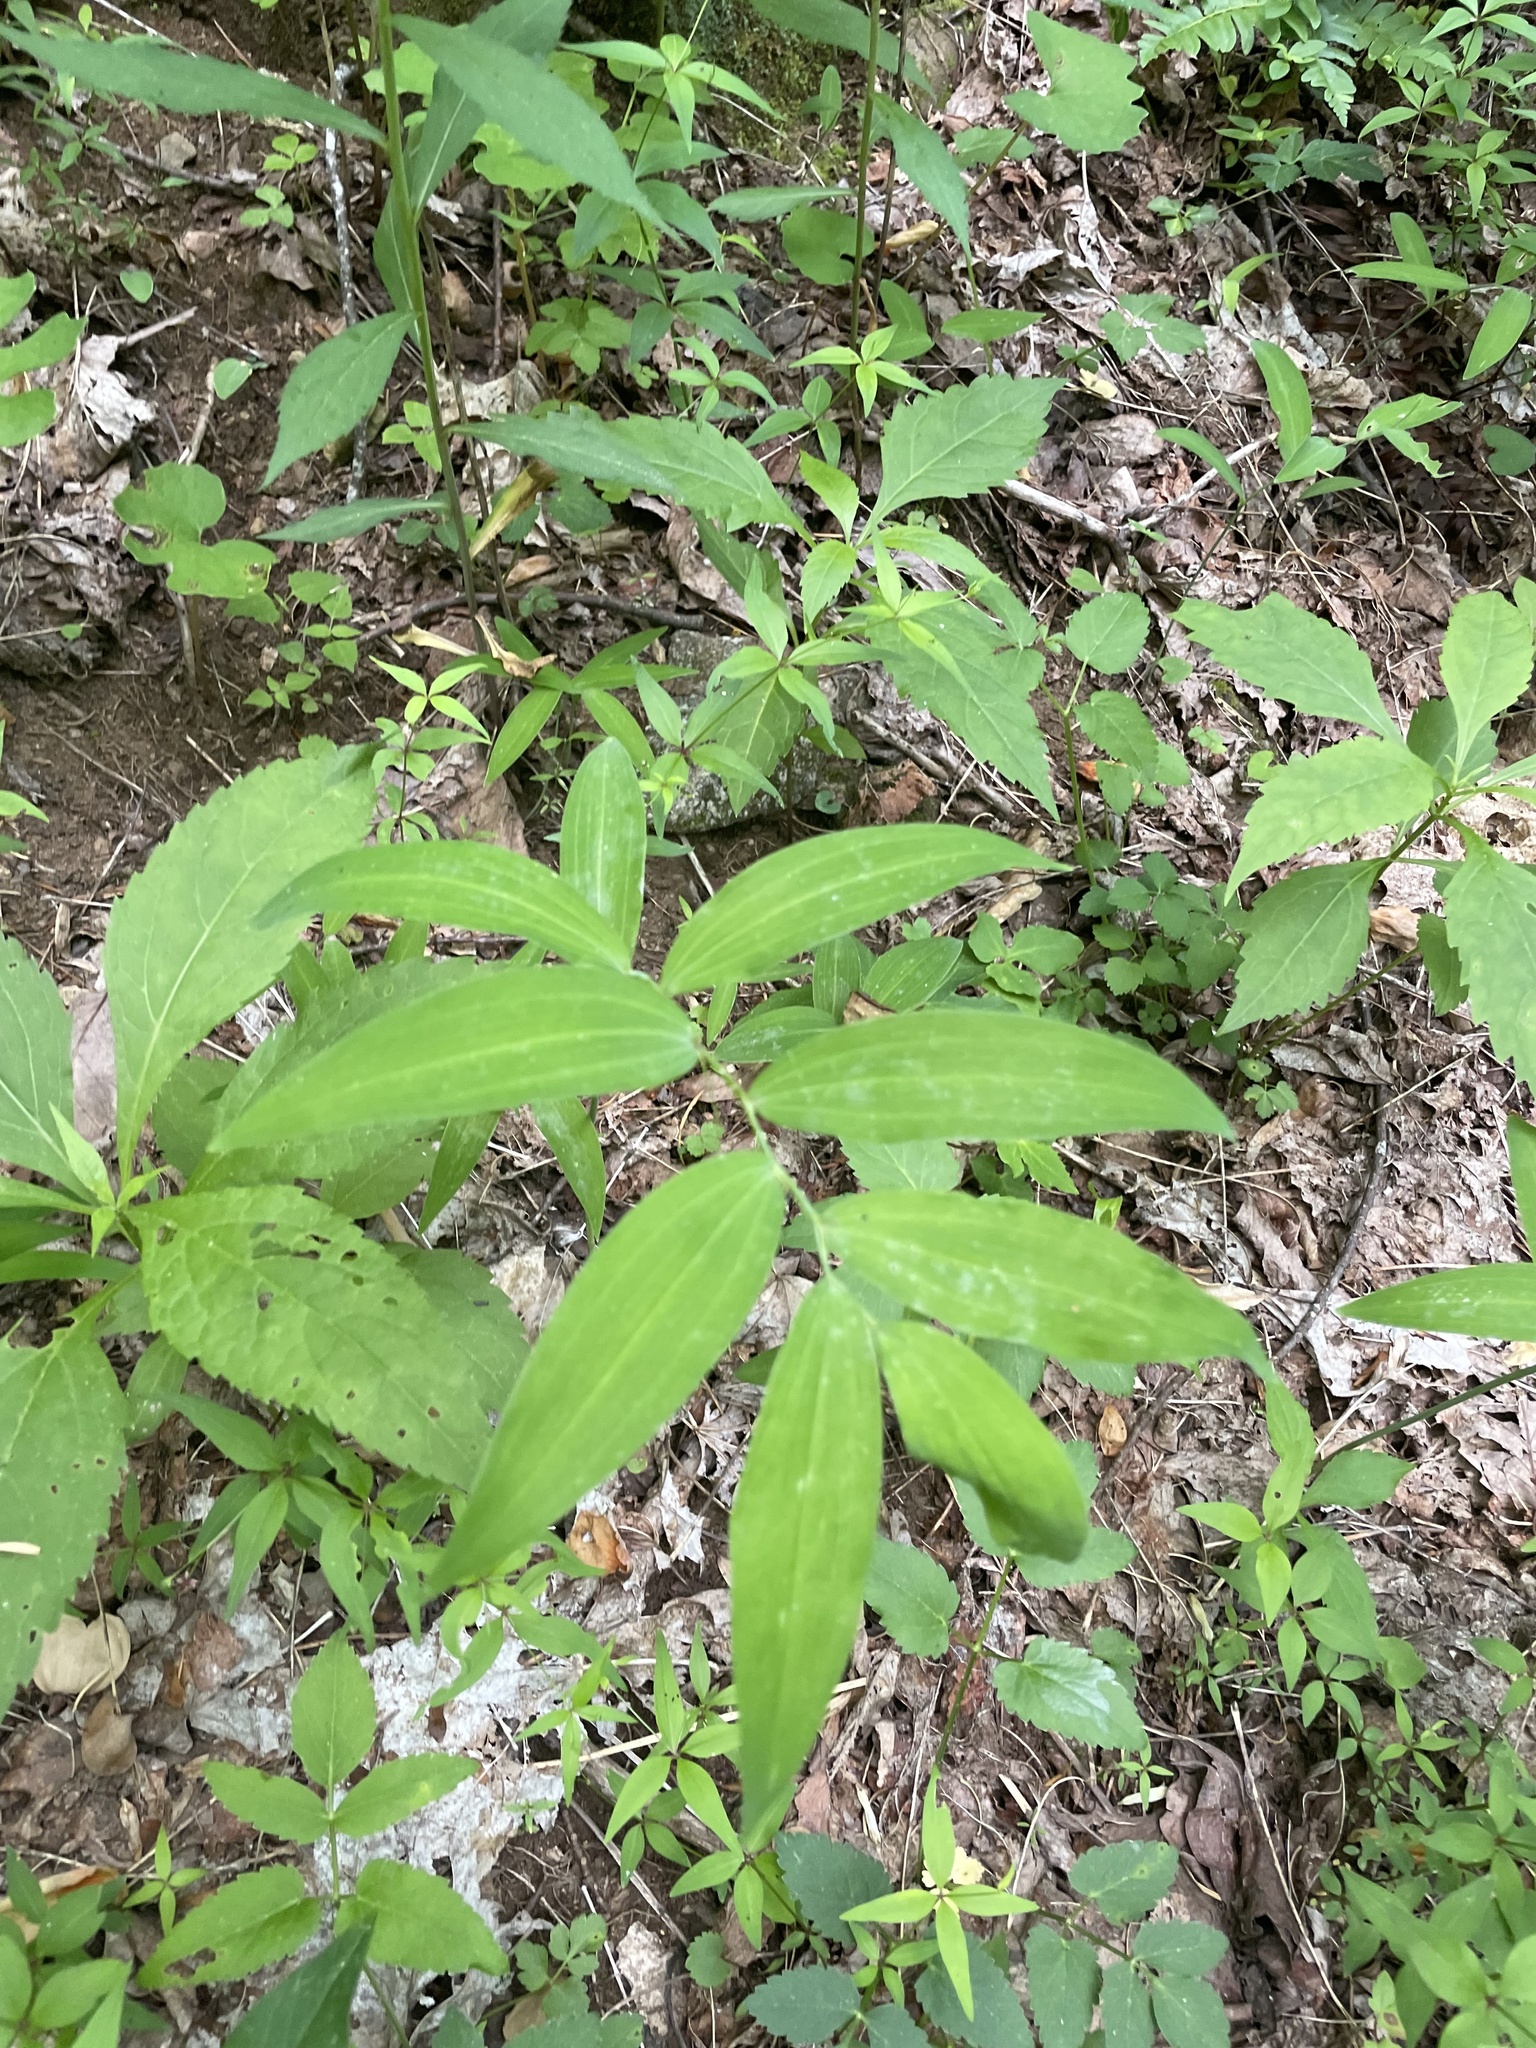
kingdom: Plantae
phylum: Tracheophyta
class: Liliopsida
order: Asparagales
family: Asparagaceae
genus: Polygonatum
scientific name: Polygonatum biflorum
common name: American solomon's-seal
